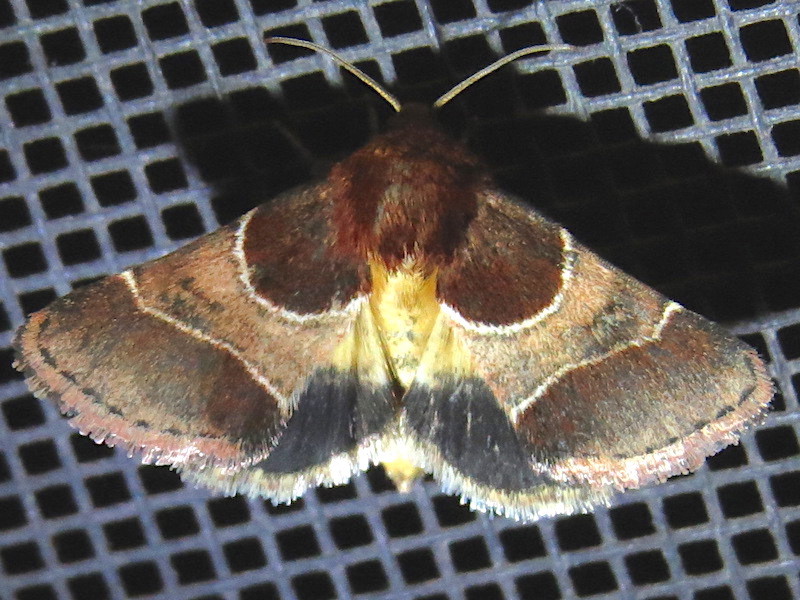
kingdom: Animalia
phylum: Arthropoda
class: Insecta
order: Lepidoptera
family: Noctuidae
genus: Schinia
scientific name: Schinia arcigera
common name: Arcigera flower moth
